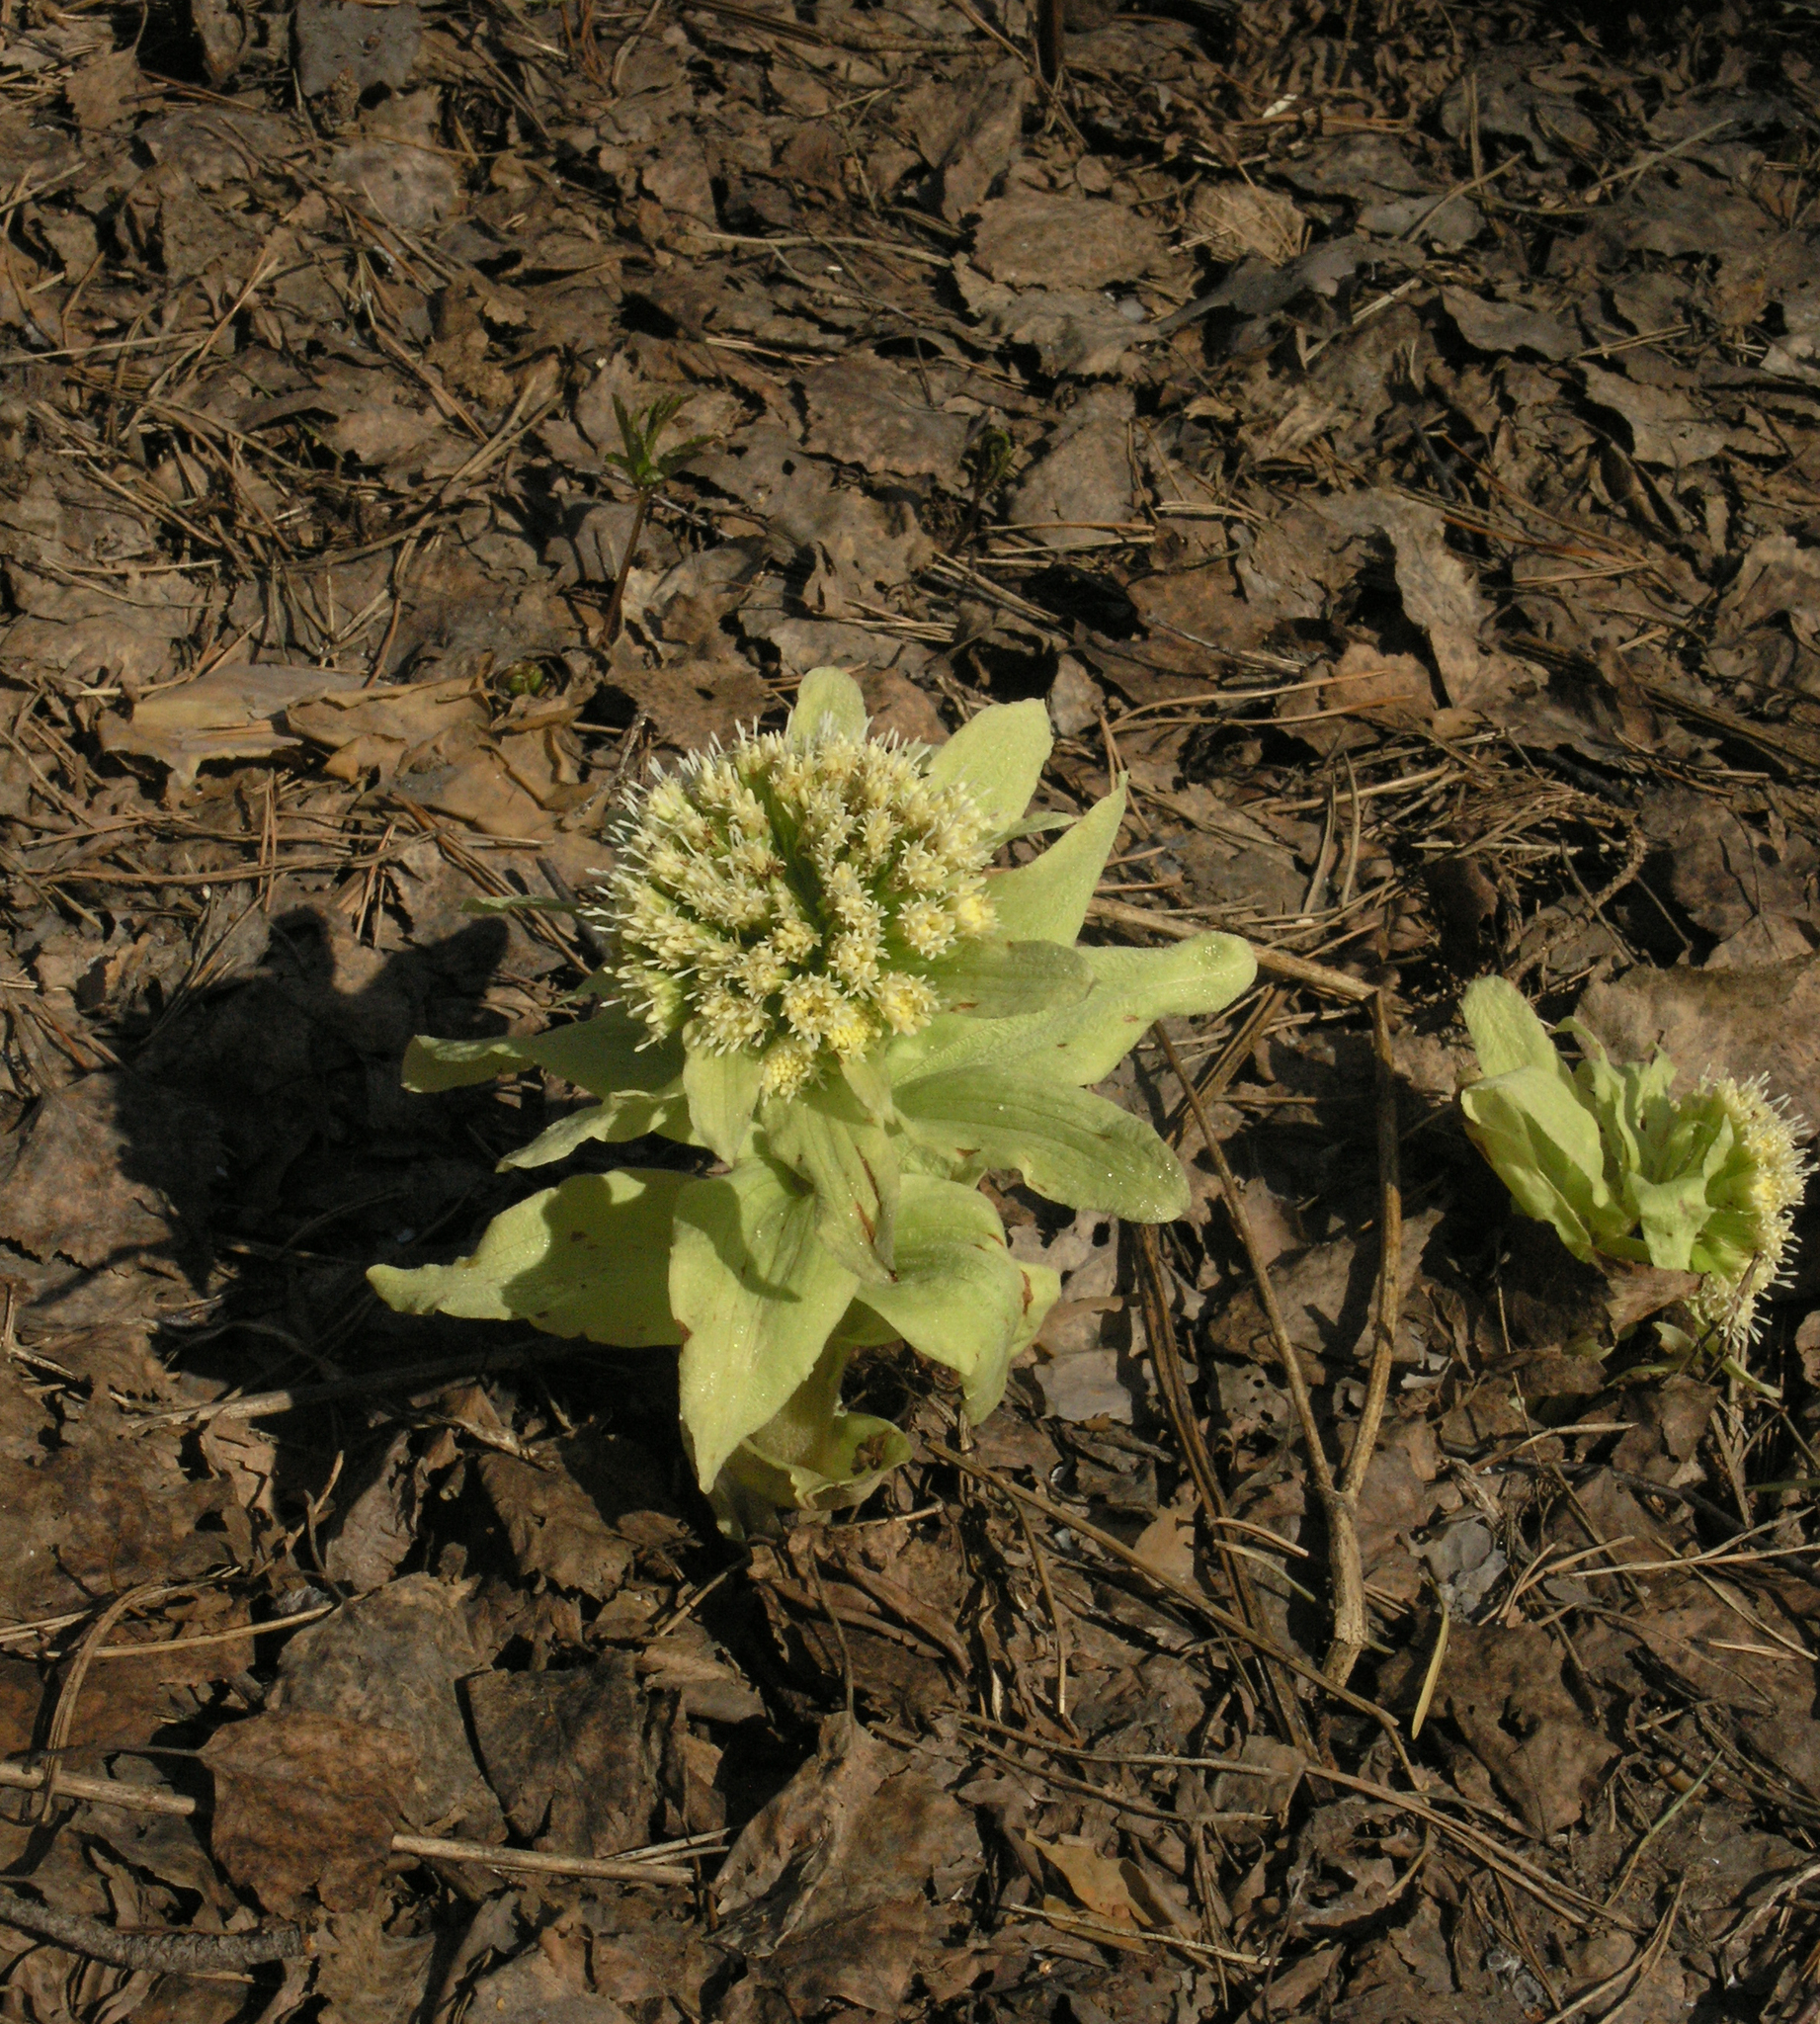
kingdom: Plantae
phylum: Tracheophyta
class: Magnoliopsida
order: Asterales
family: Asteraceae
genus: Petasites
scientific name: Petasites japonicus
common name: Giant butterbur
